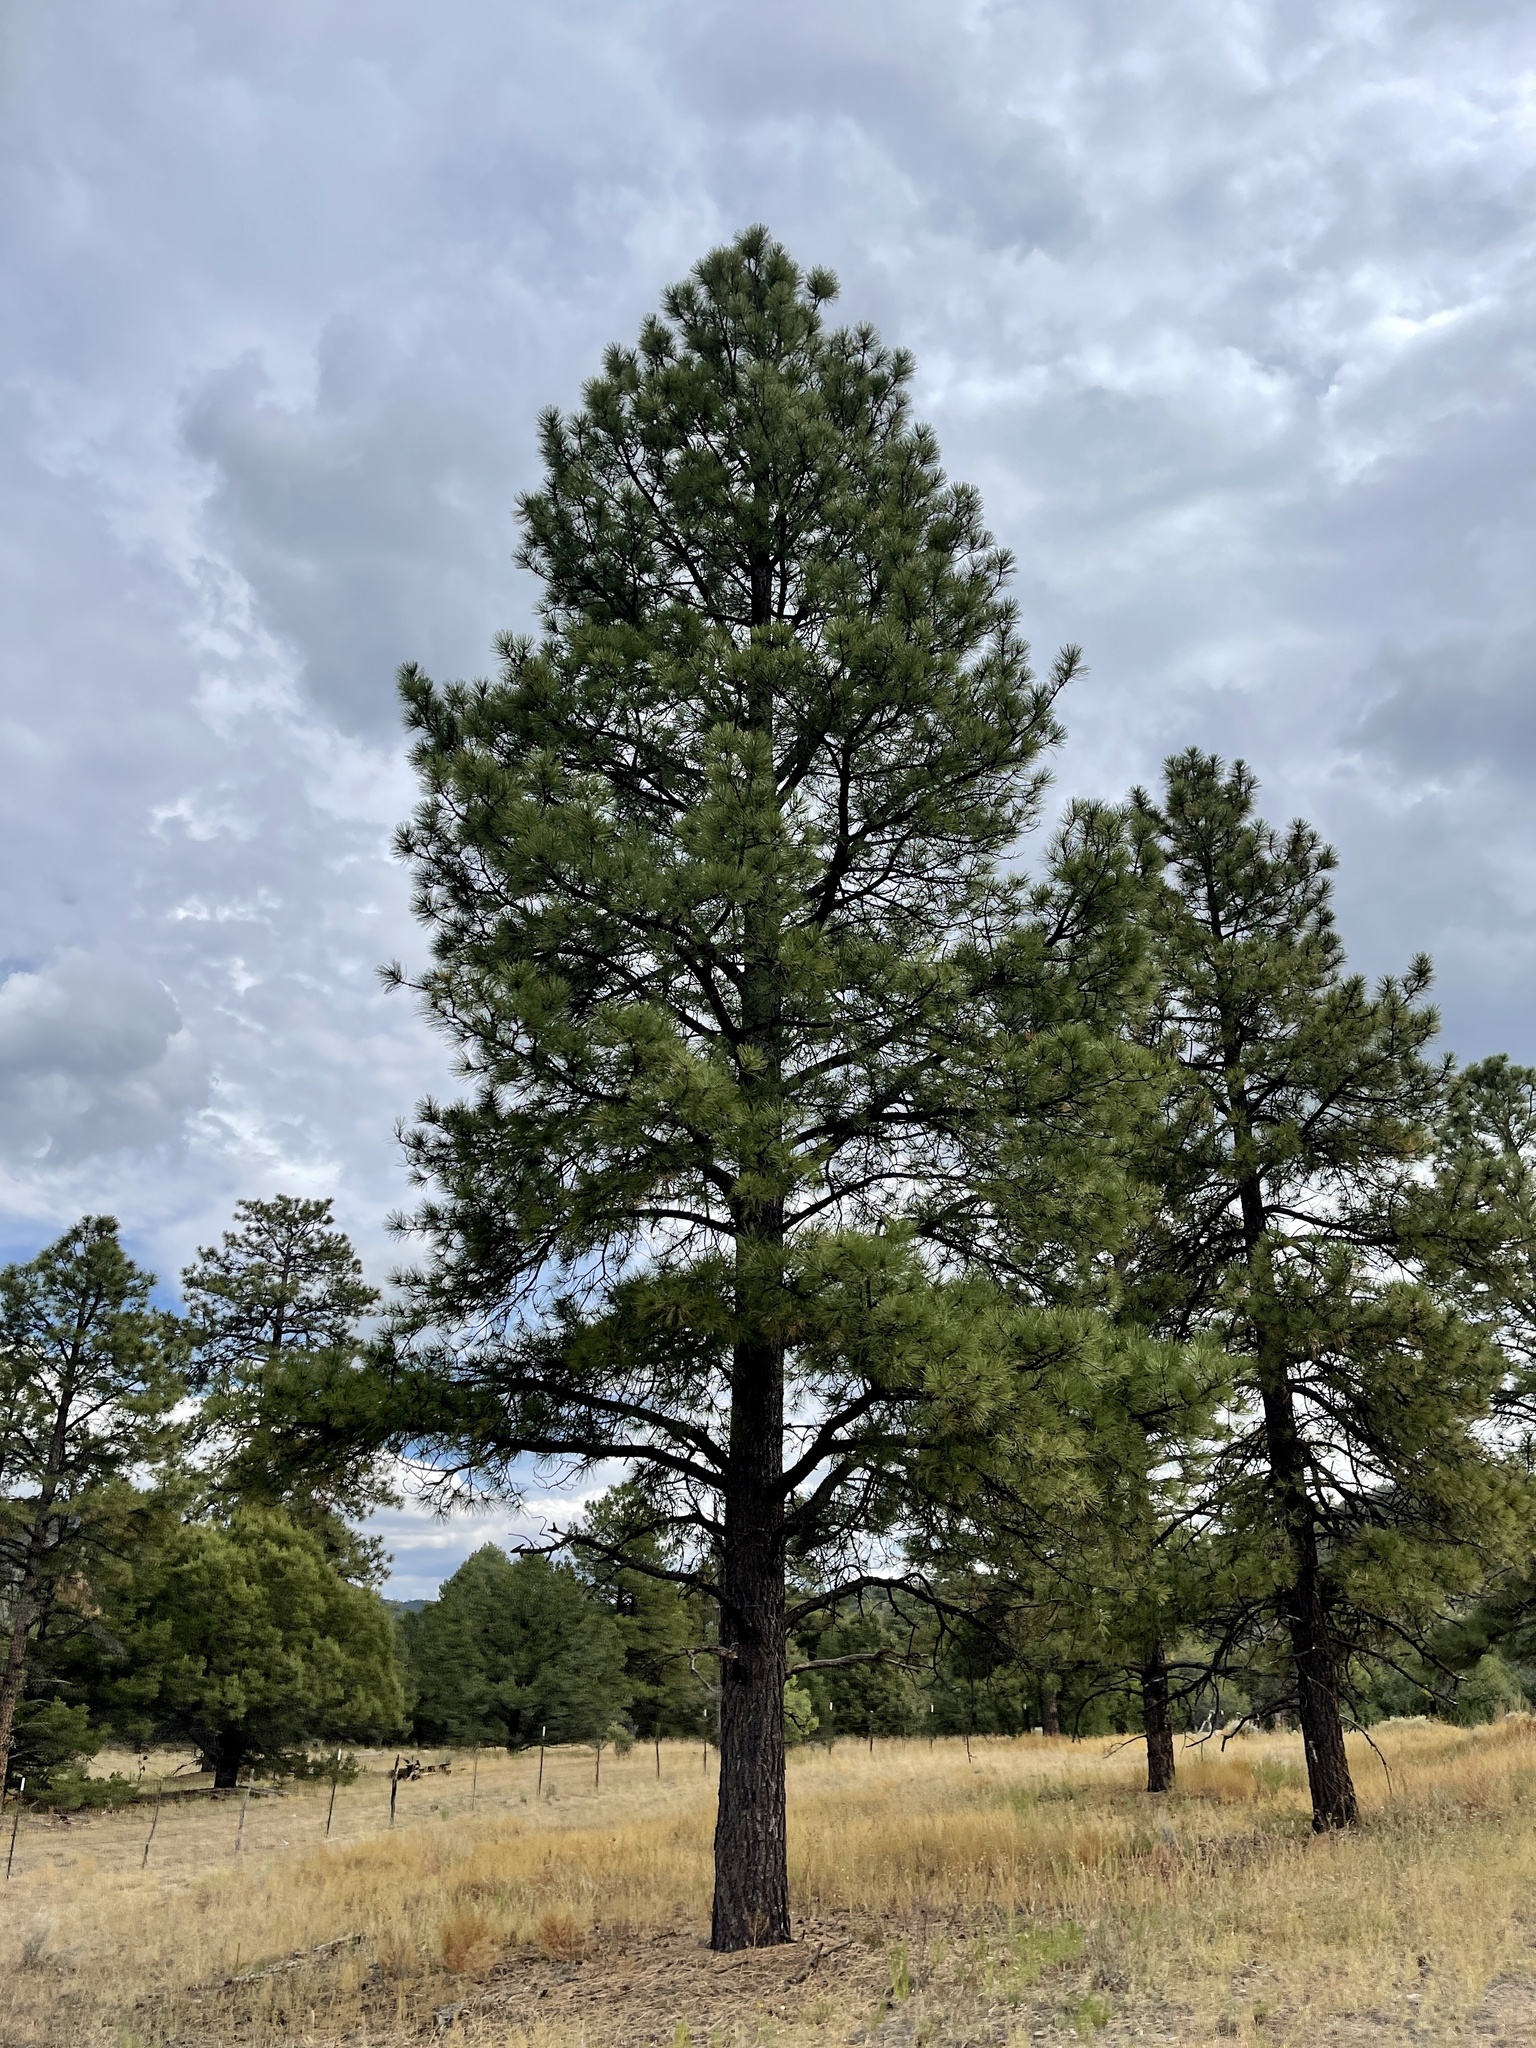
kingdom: Plantae
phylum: Tracheophyta
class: Pinopsida
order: Pinales
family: Pinaceae
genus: Pinus
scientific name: Pinus ponderosa
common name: Western yellow-pine
